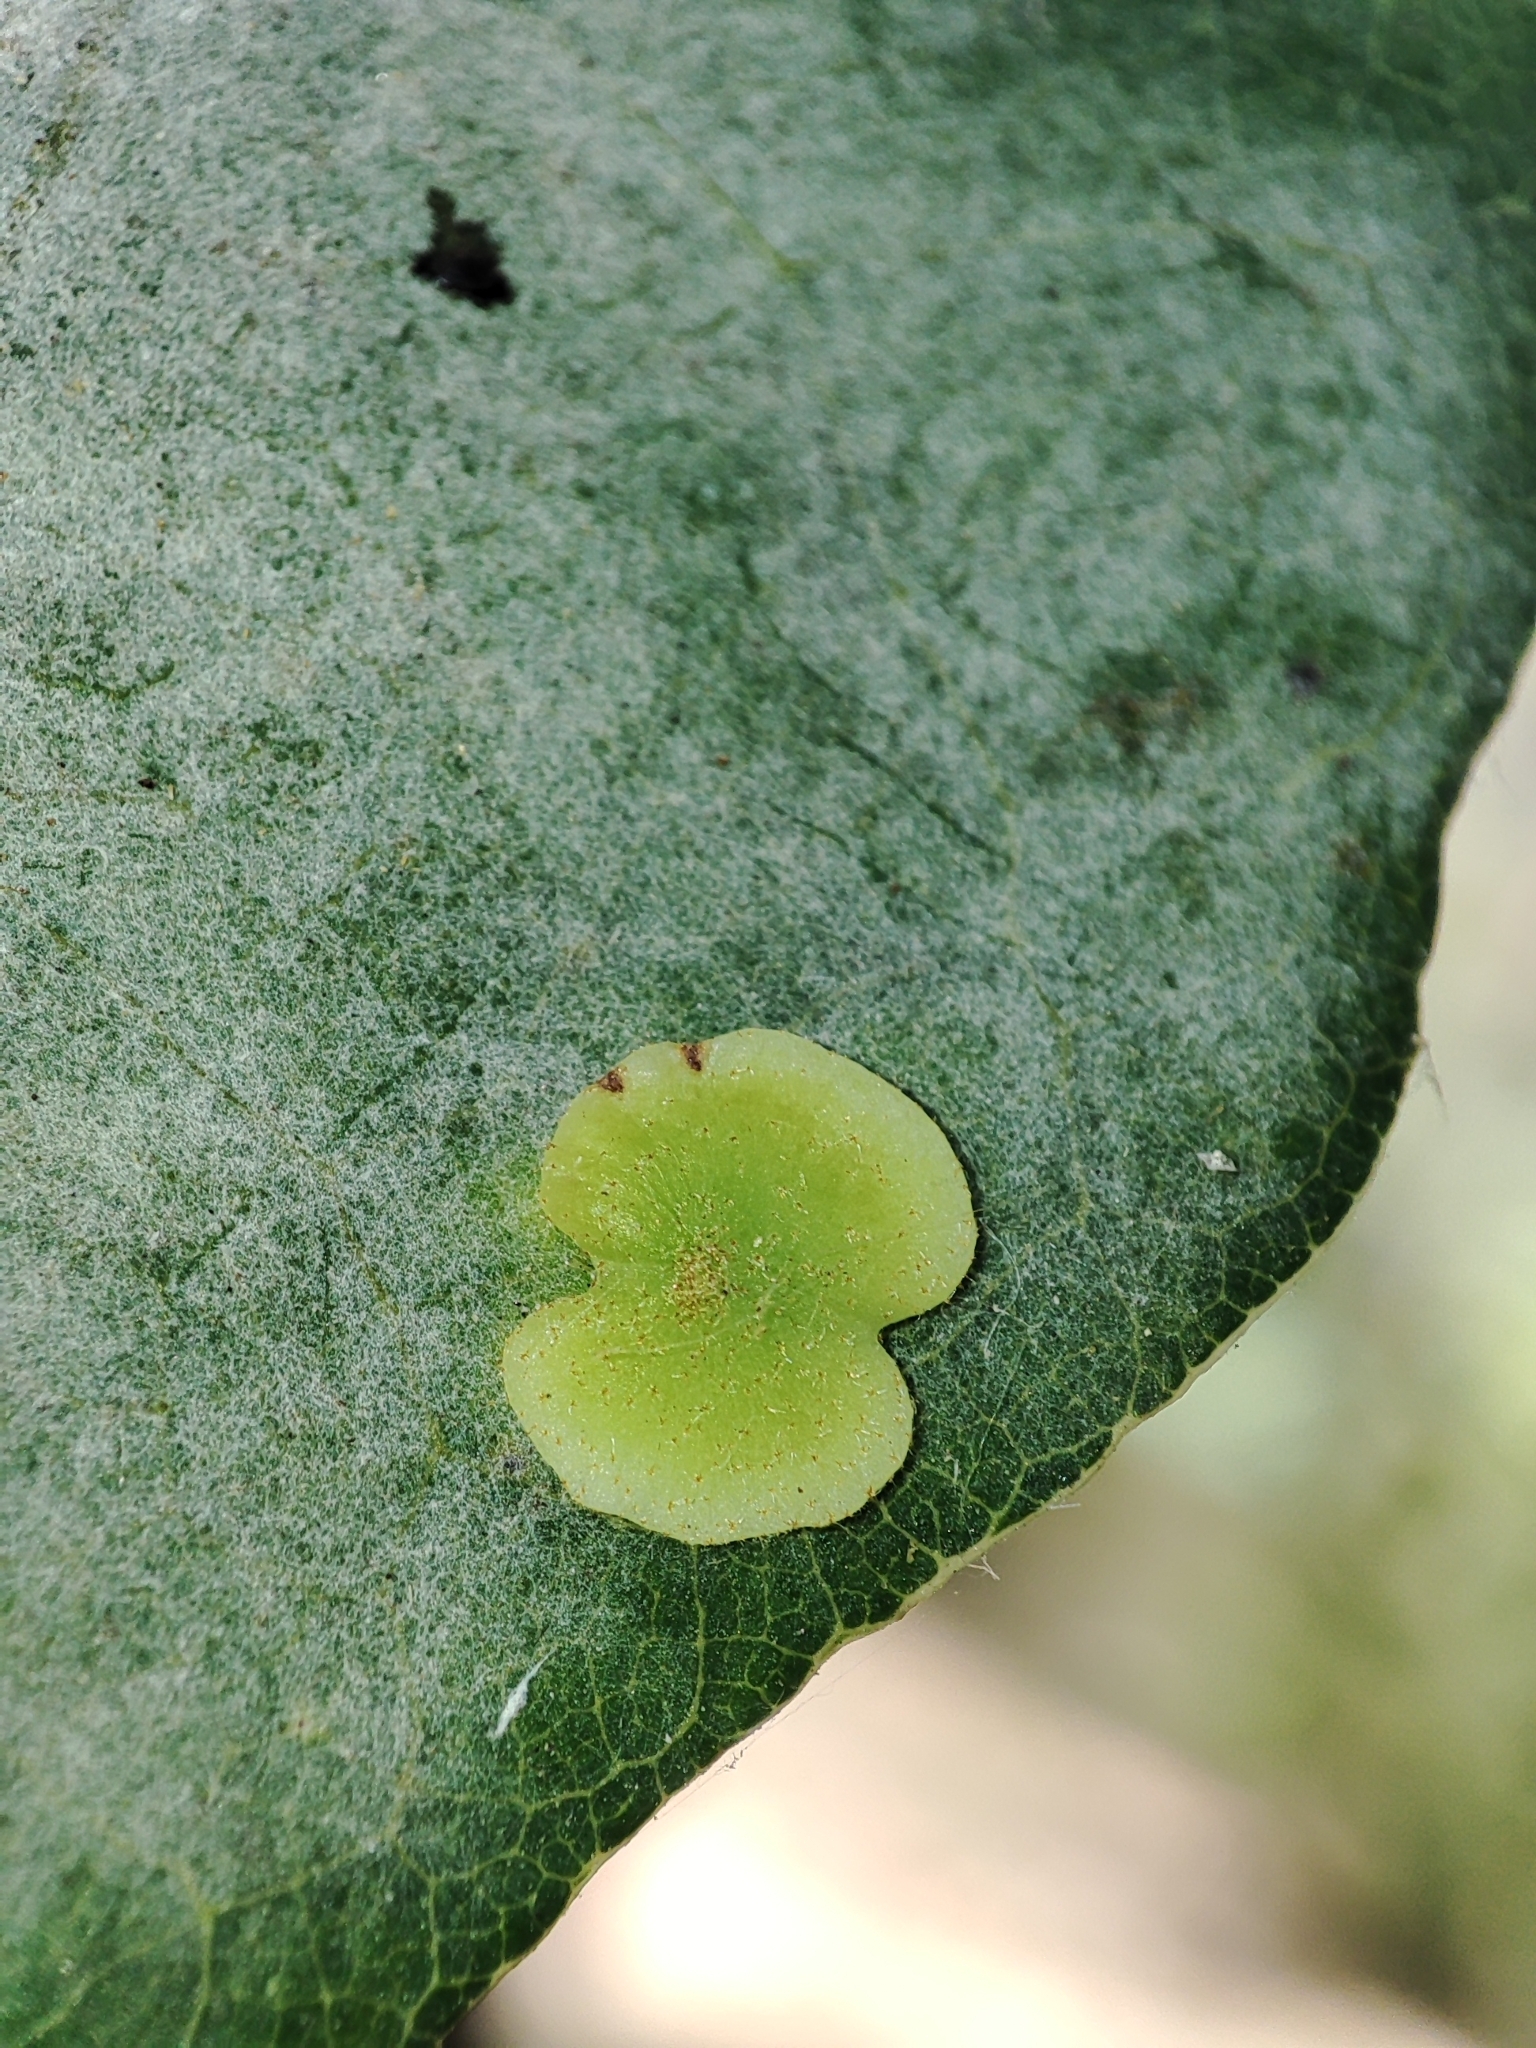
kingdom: Animalia
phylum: Arthropoda
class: Insecta
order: Hymenoptera
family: Cynipidae
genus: Neuroterus
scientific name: Neuroterus albipes
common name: Smooth spangle gall
